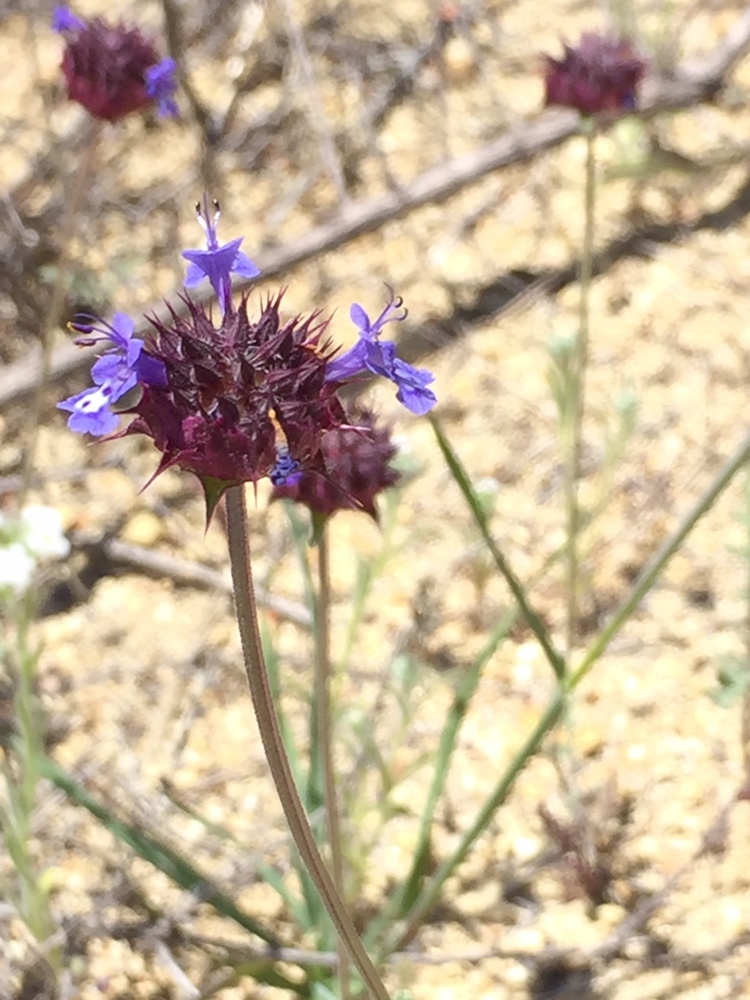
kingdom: Plantae
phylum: Tracheophyta
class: Magnoliopsida
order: Lamiales
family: Lamiaceae
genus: Salvia
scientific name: Salvia columbariae
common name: Chia
